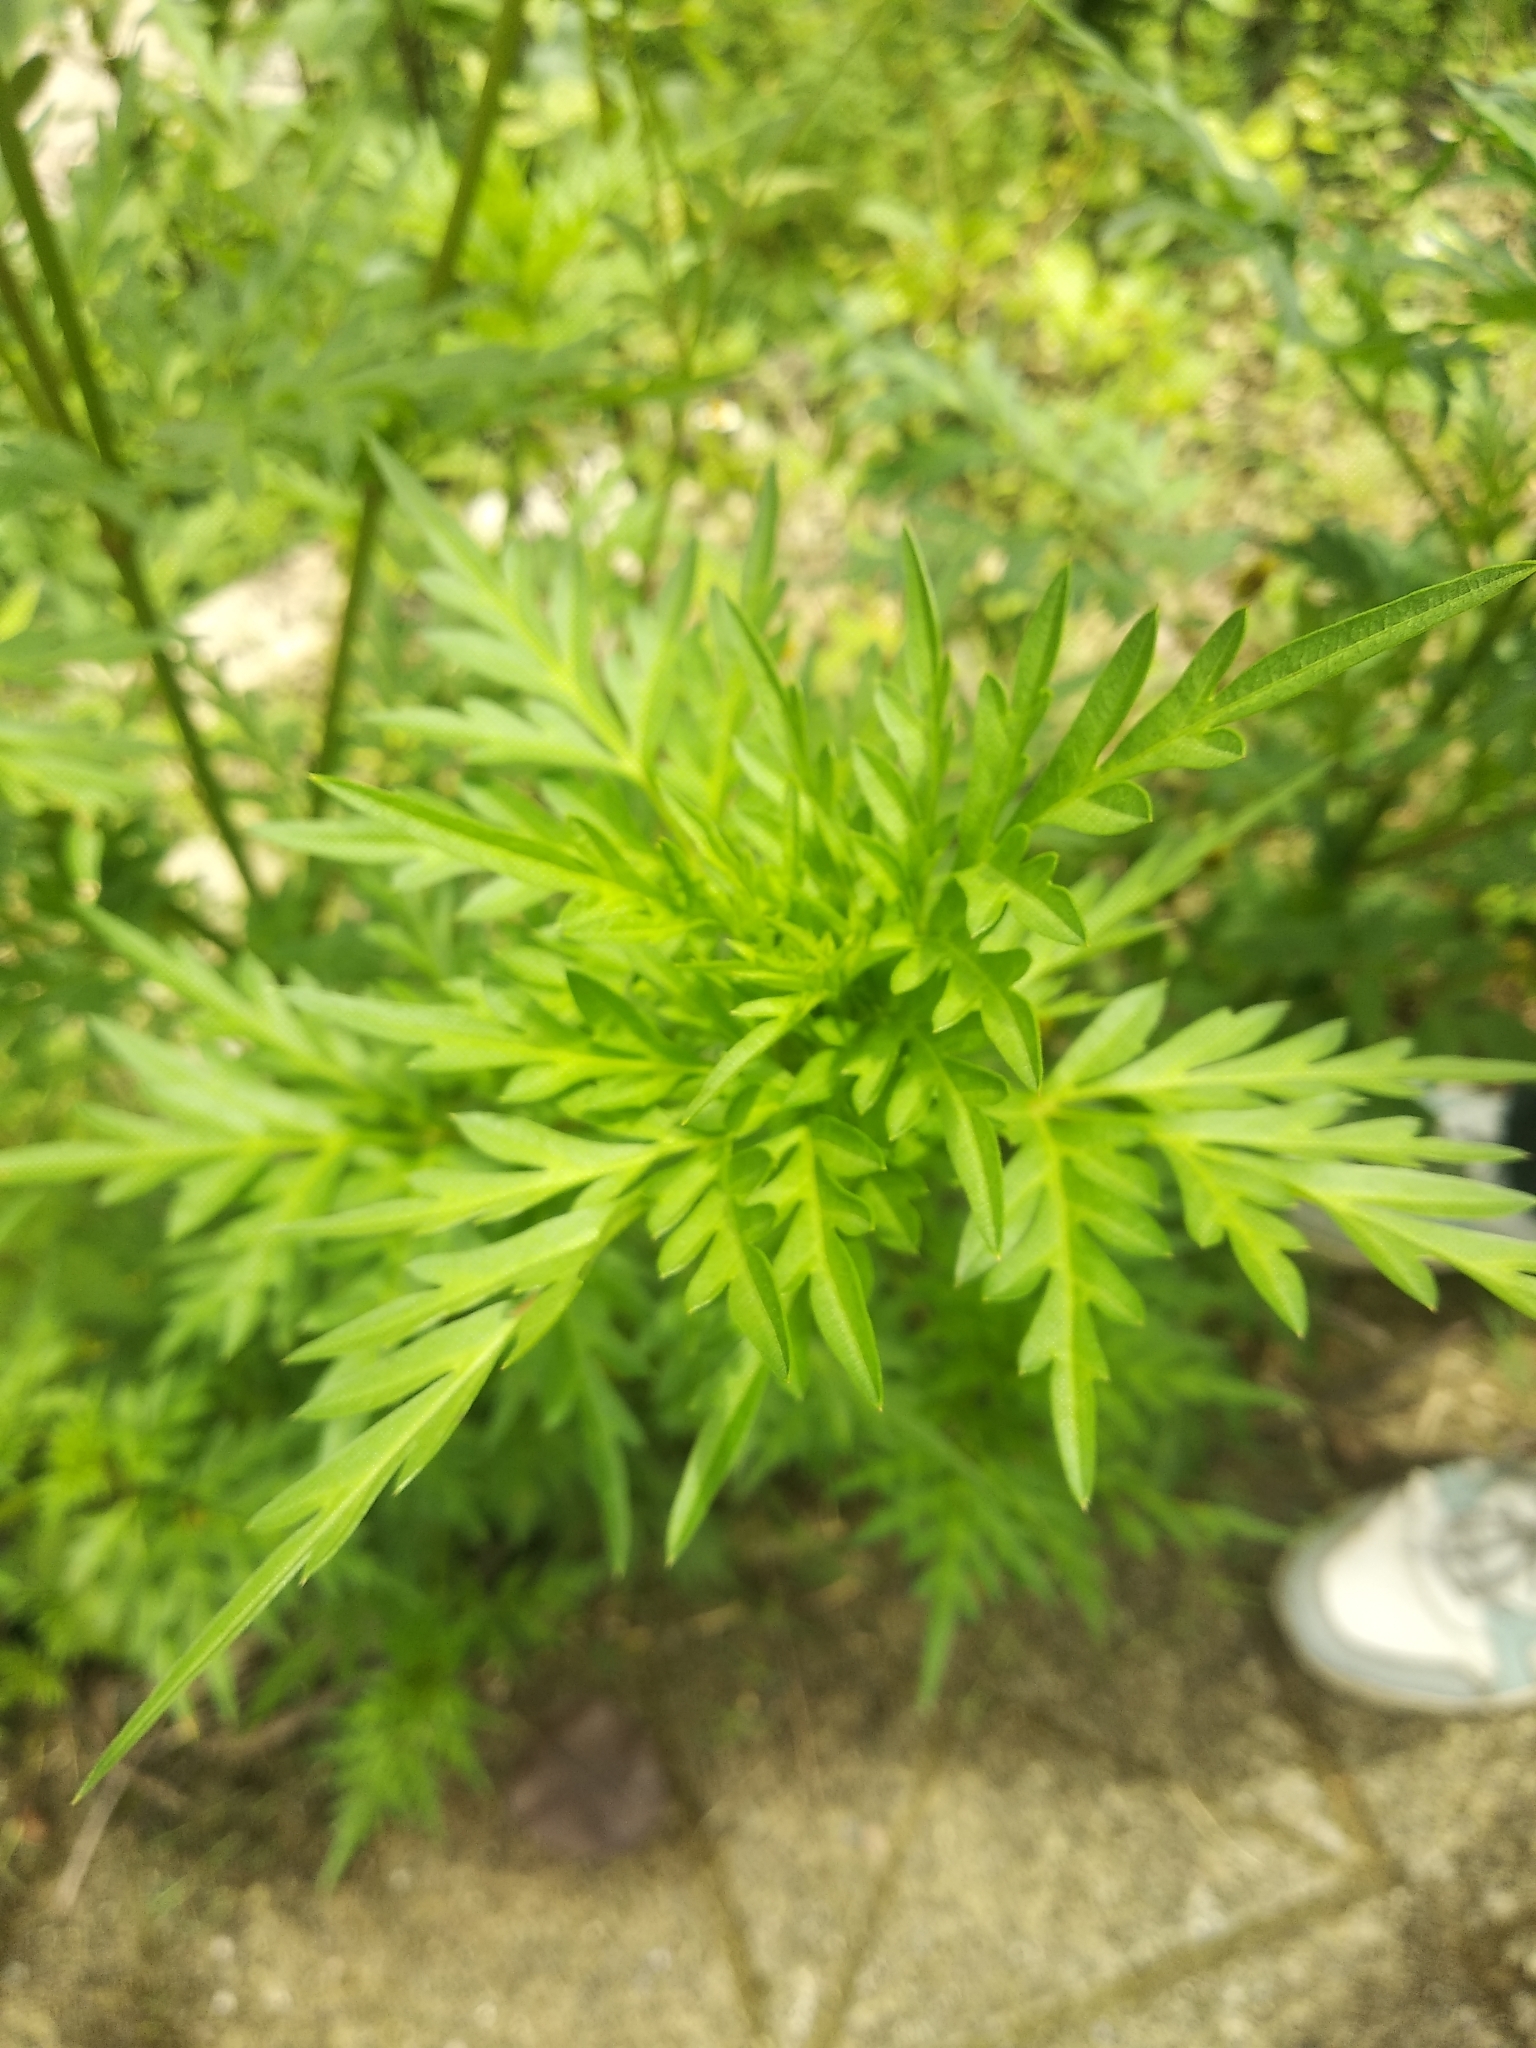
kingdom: Plantae
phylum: Tracheophyta
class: Magnoliopsida
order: Asterales
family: Asteraceae
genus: Cosmos
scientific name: Cosmos sulphureus
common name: Sulphur cosmos
